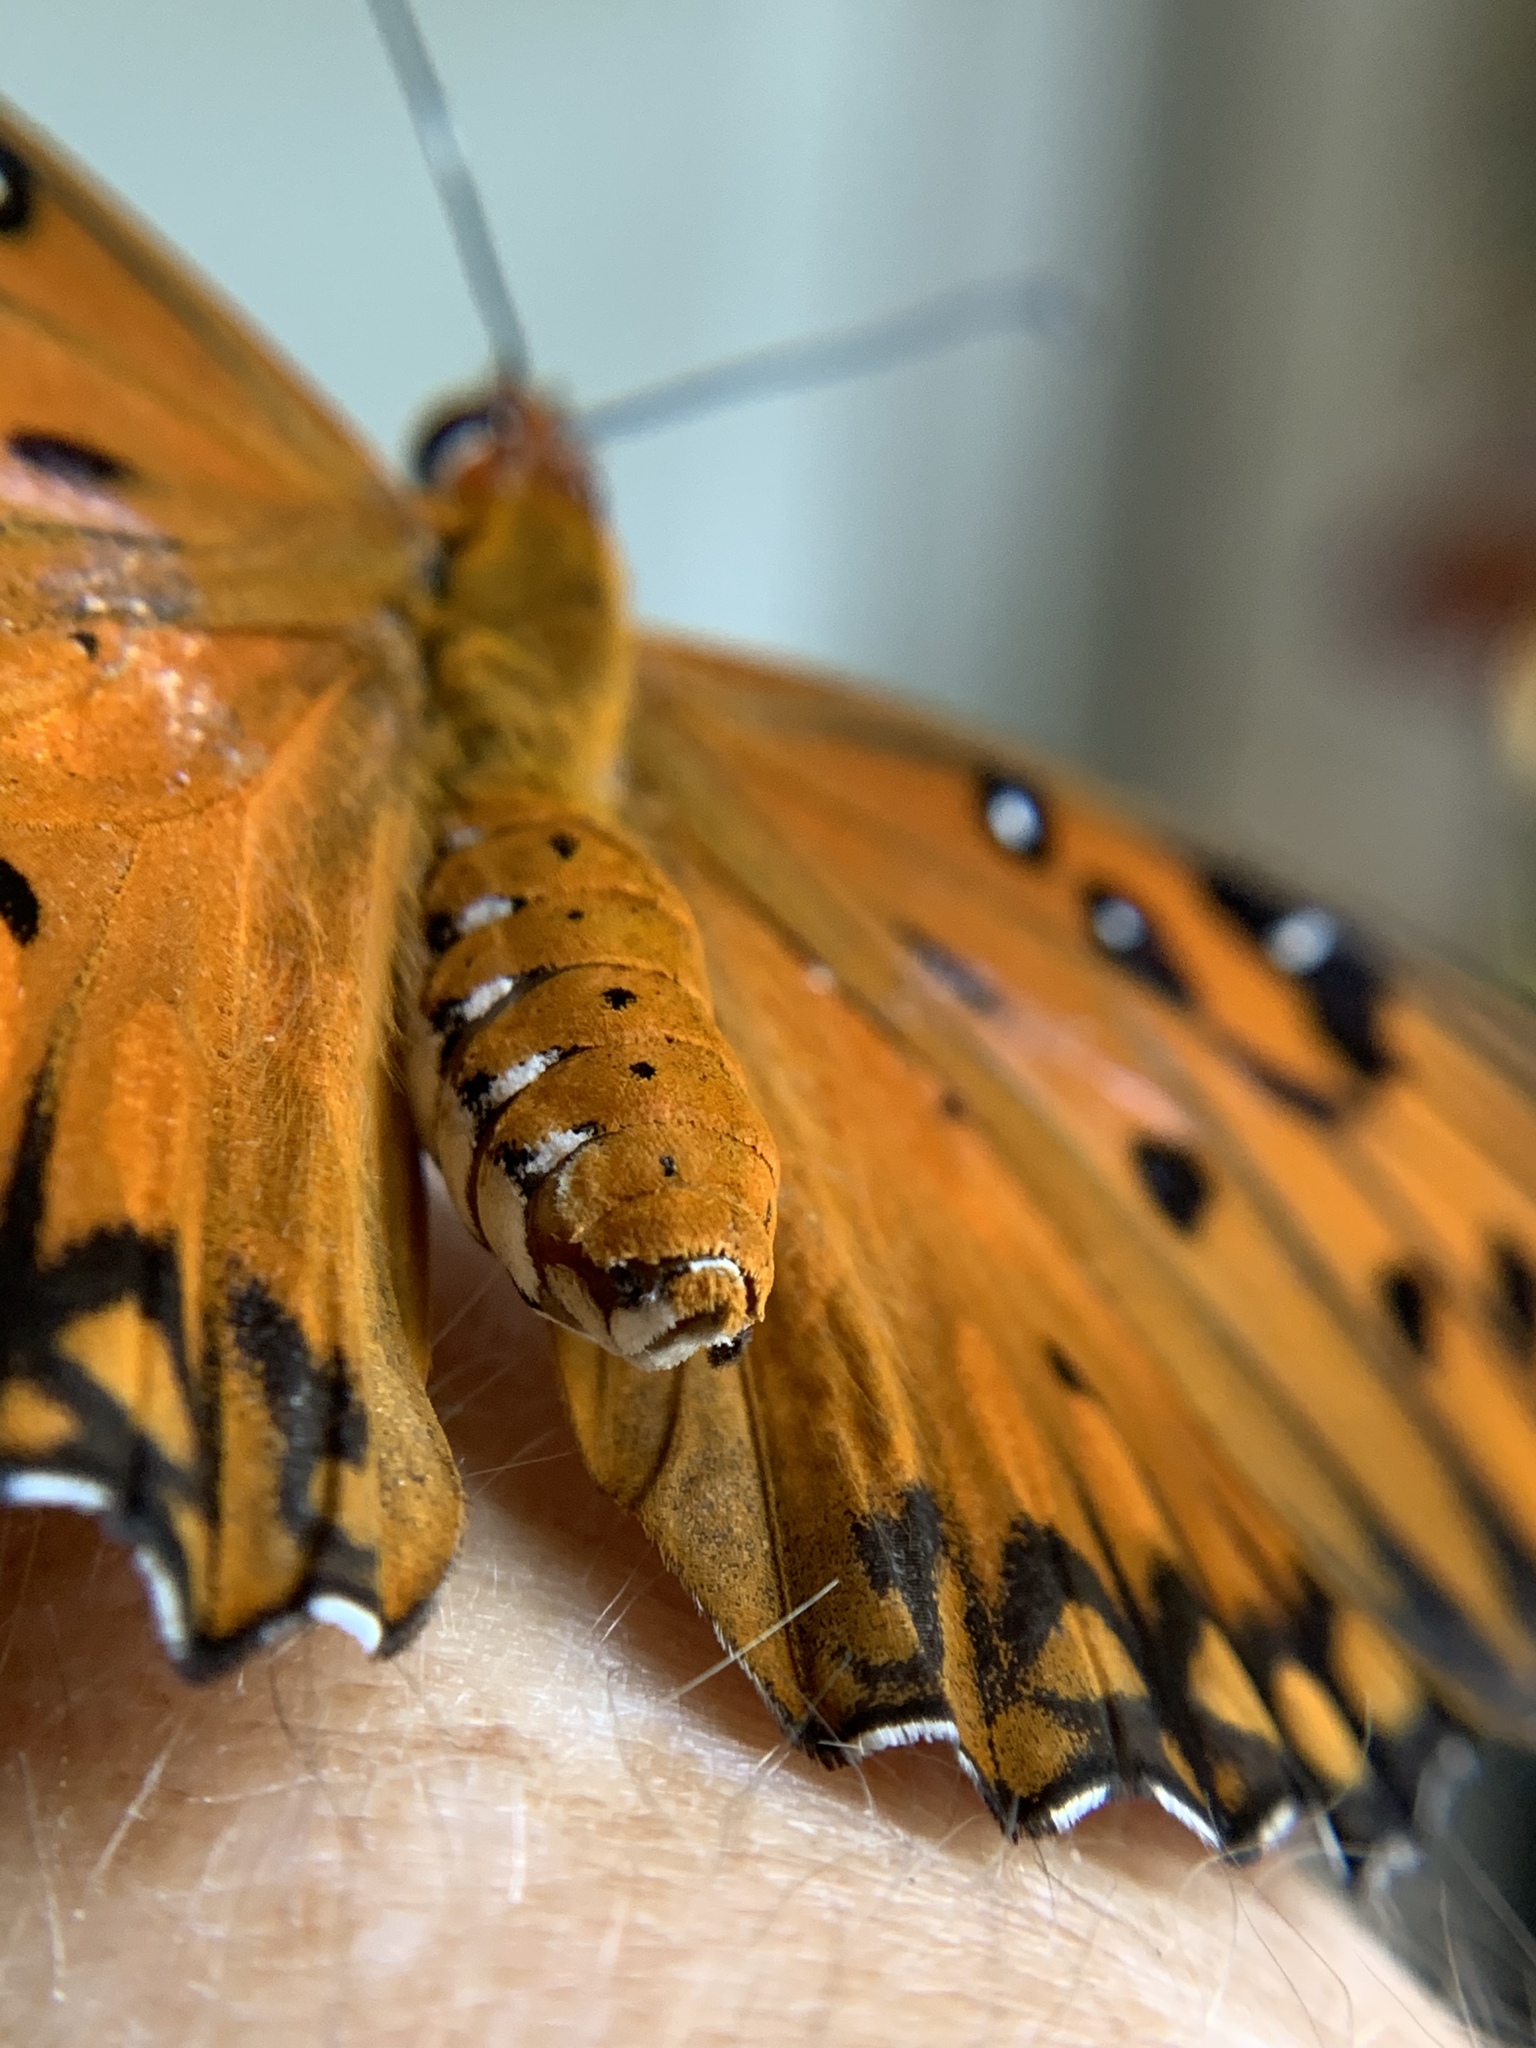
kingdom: Animalia
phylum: Arthropoda
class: Insecta
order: Lepidoptera
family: Nymphalidae
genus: Dione
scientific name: Dione vanillae
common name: Gulf fritillary
